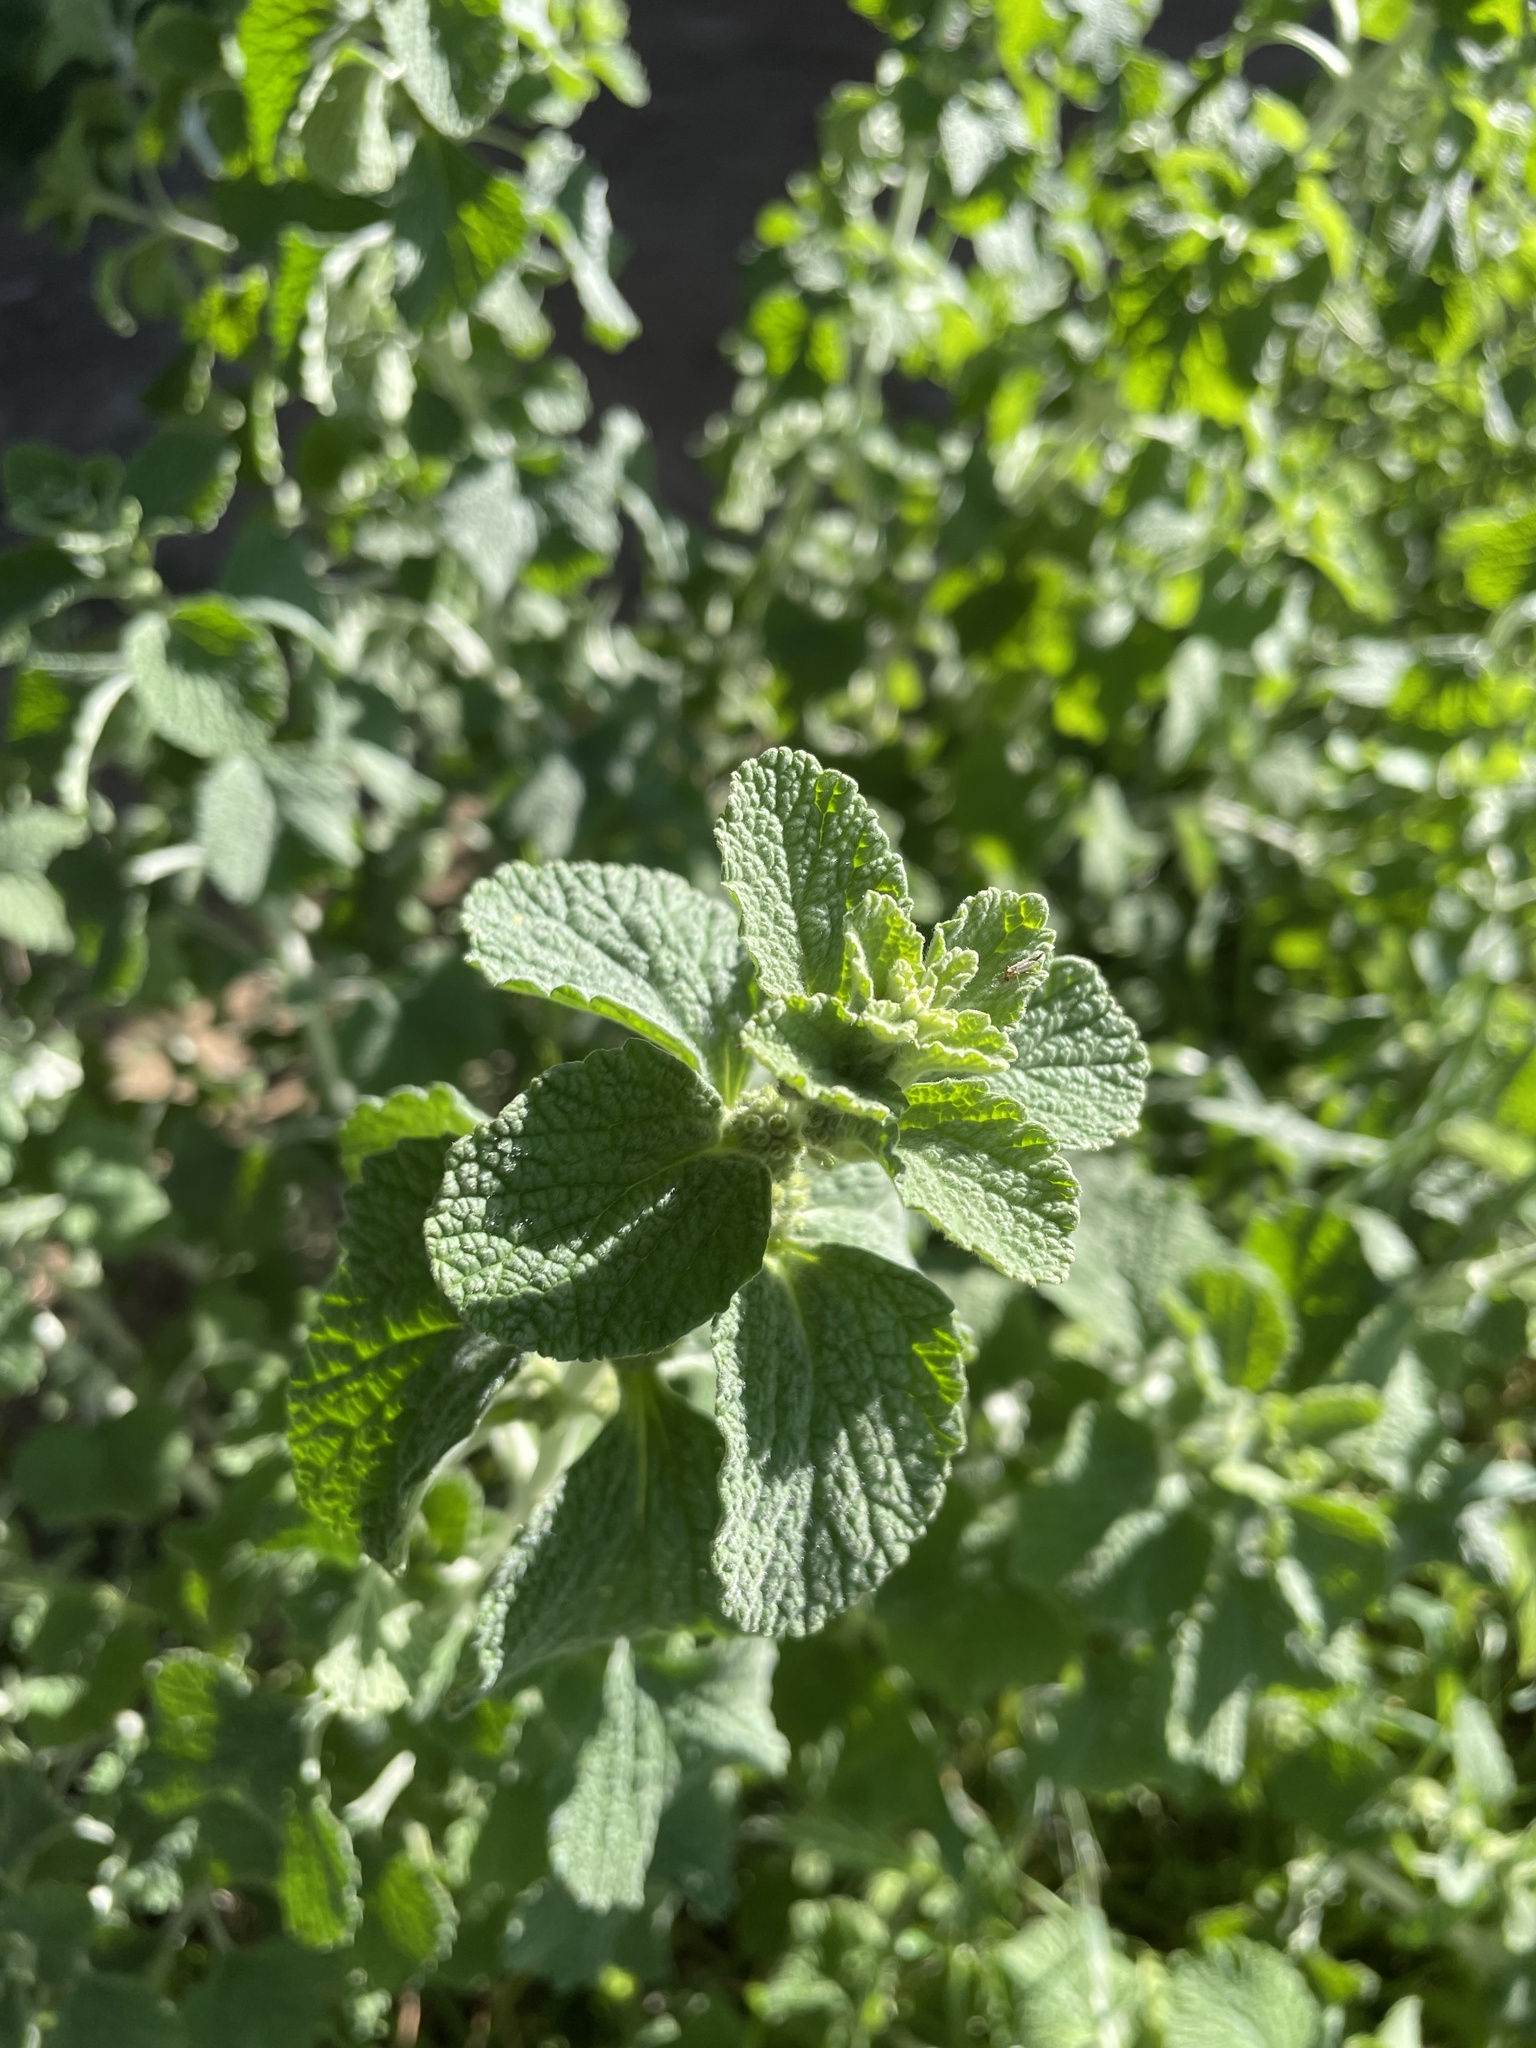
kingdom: Plantae
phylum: Tracheophyta
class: Magnoliopsida
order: Lamiales
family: Lamiaceae
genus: Marrubium
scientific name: Marrubium vulgare
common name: Horehound
